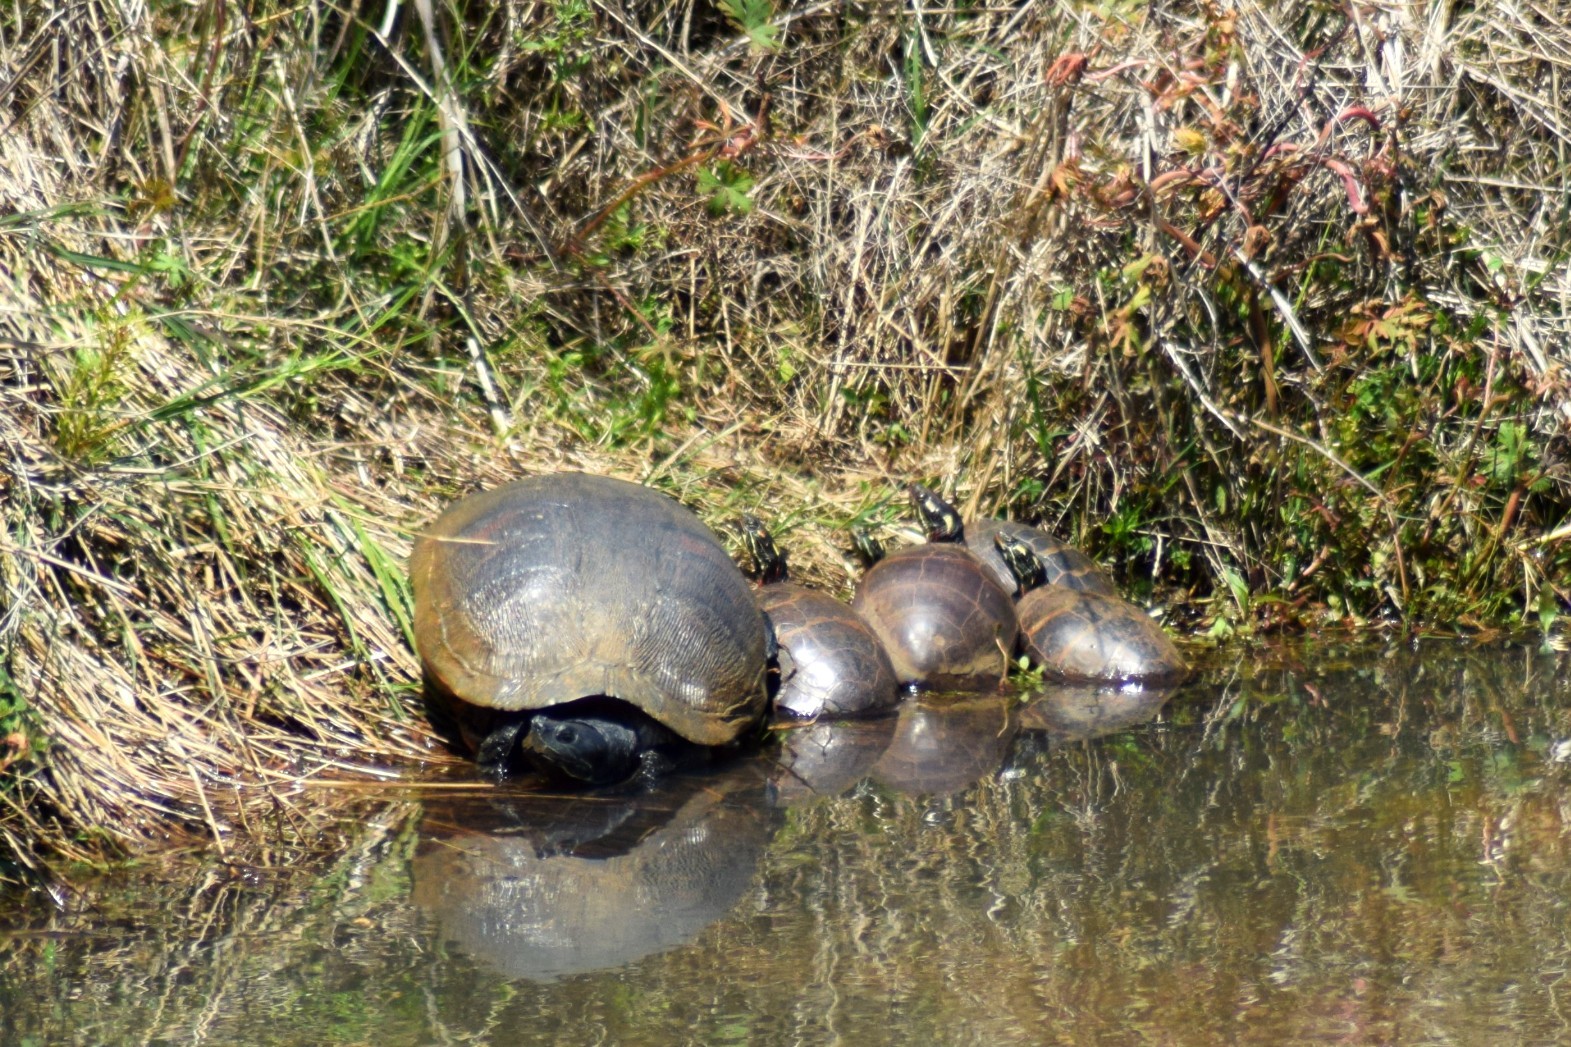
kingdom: Animalia
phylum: Chordata
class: Testudines
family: Emydidae
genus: Pseudemys
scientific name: Pseudemys rubriventris
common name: American red-bellied turtle
